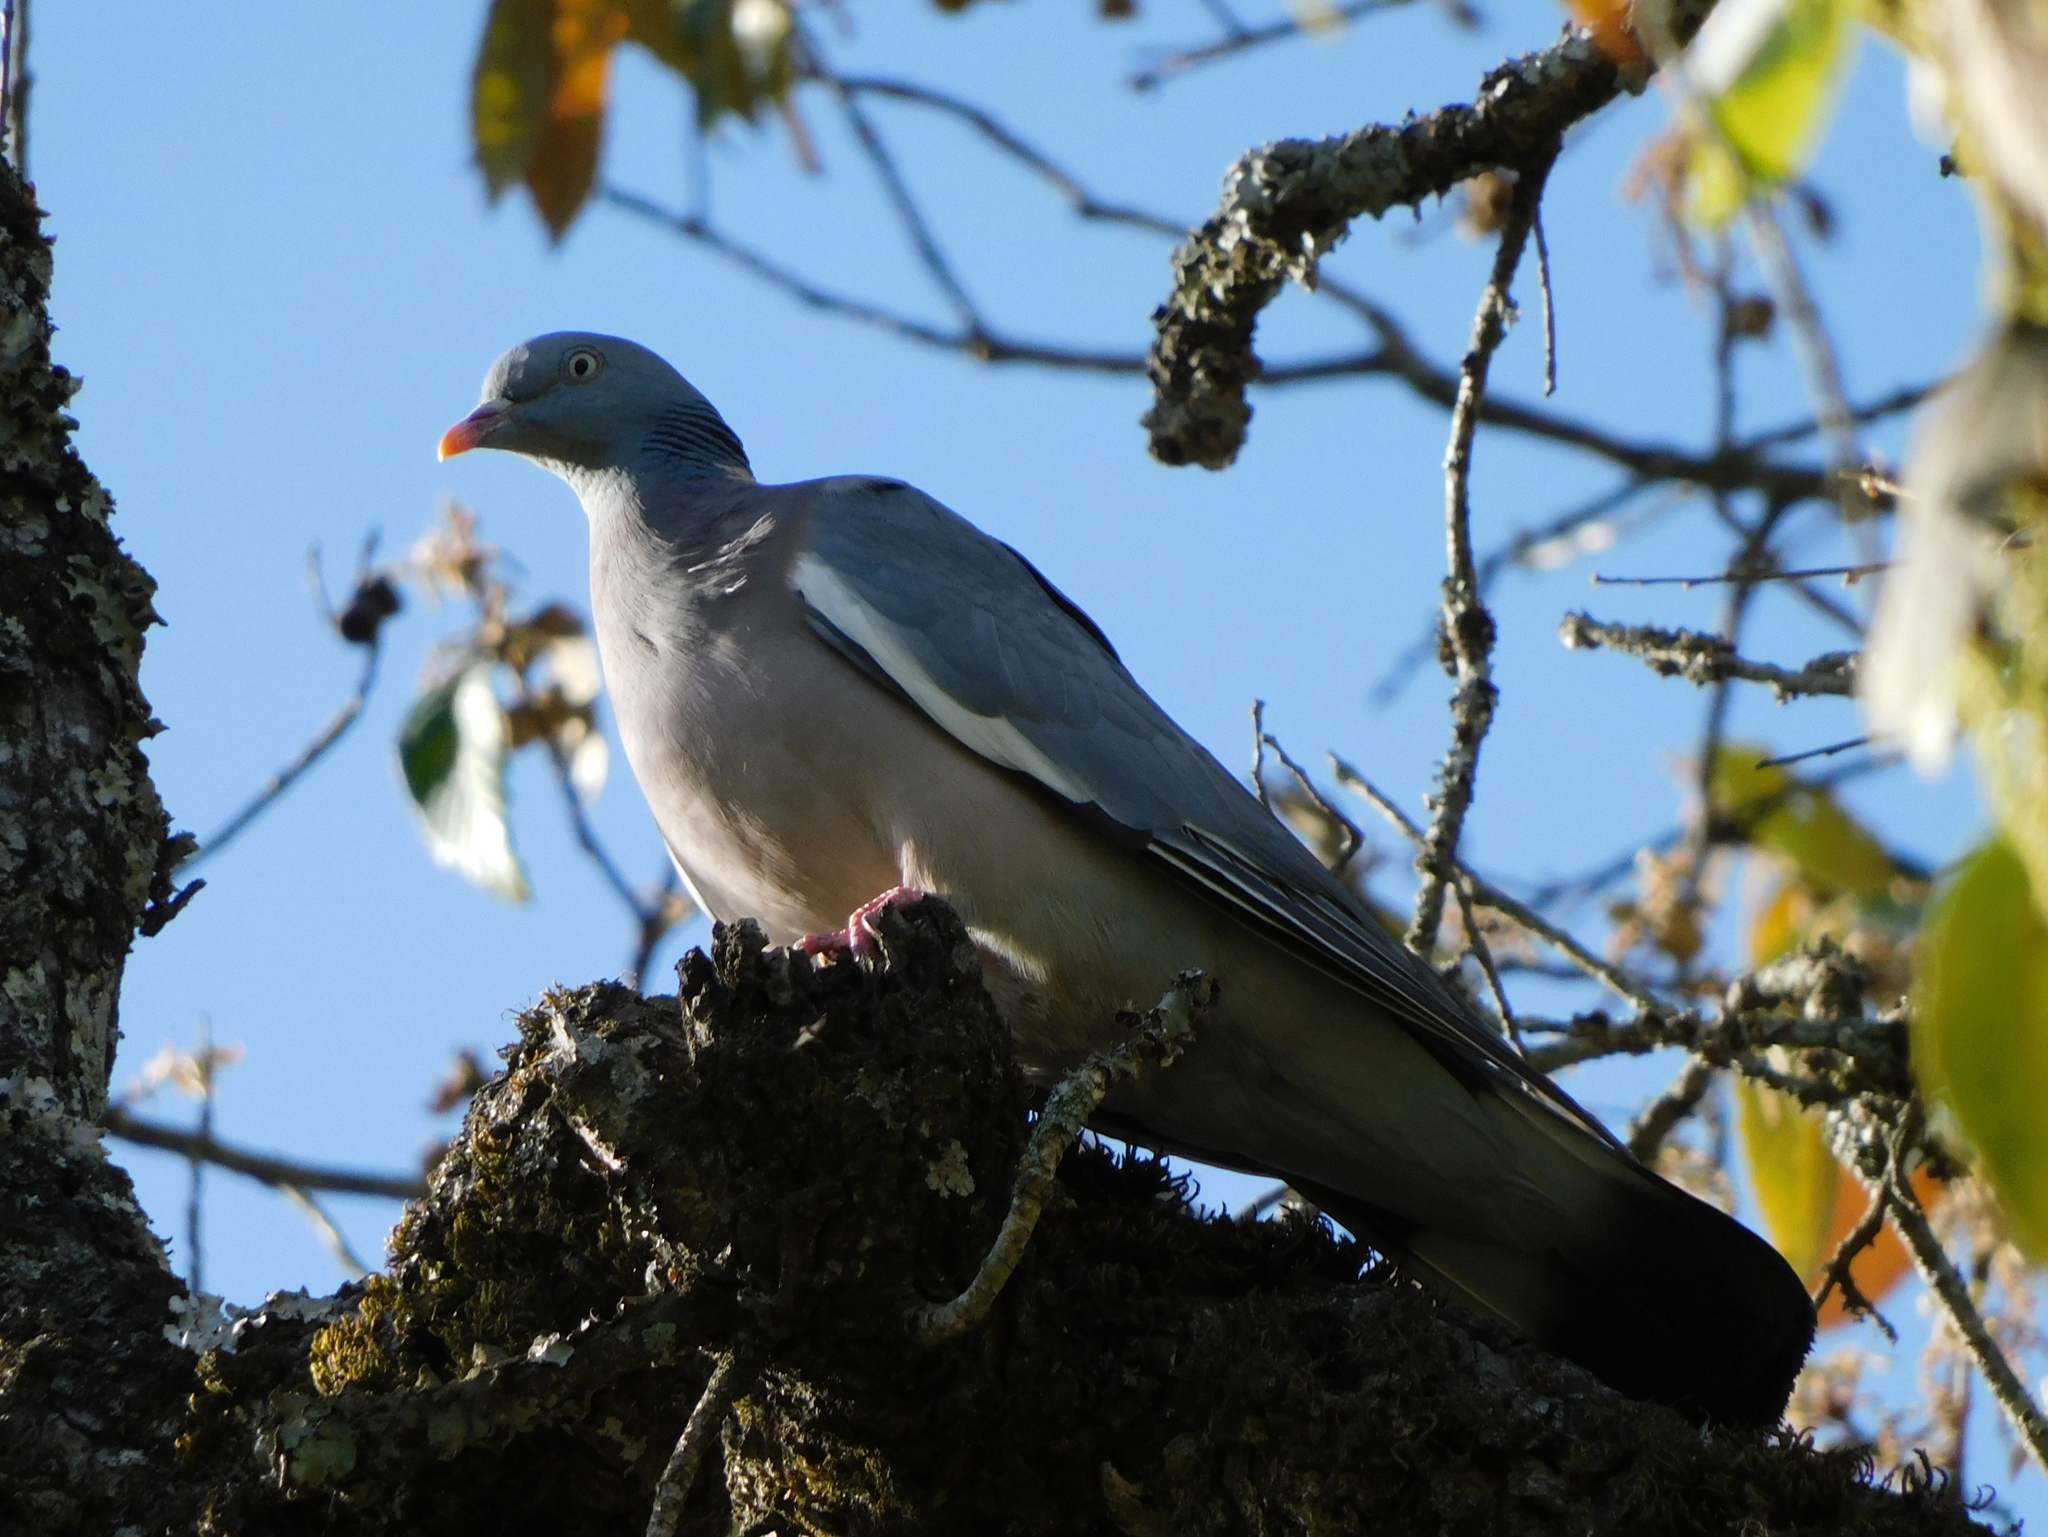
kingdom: Animalia
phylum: Chordata
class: Aves
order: Columbiformes
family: Columbidae
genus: Columba
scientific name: Columba palumbus
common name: Common wood pigeon
